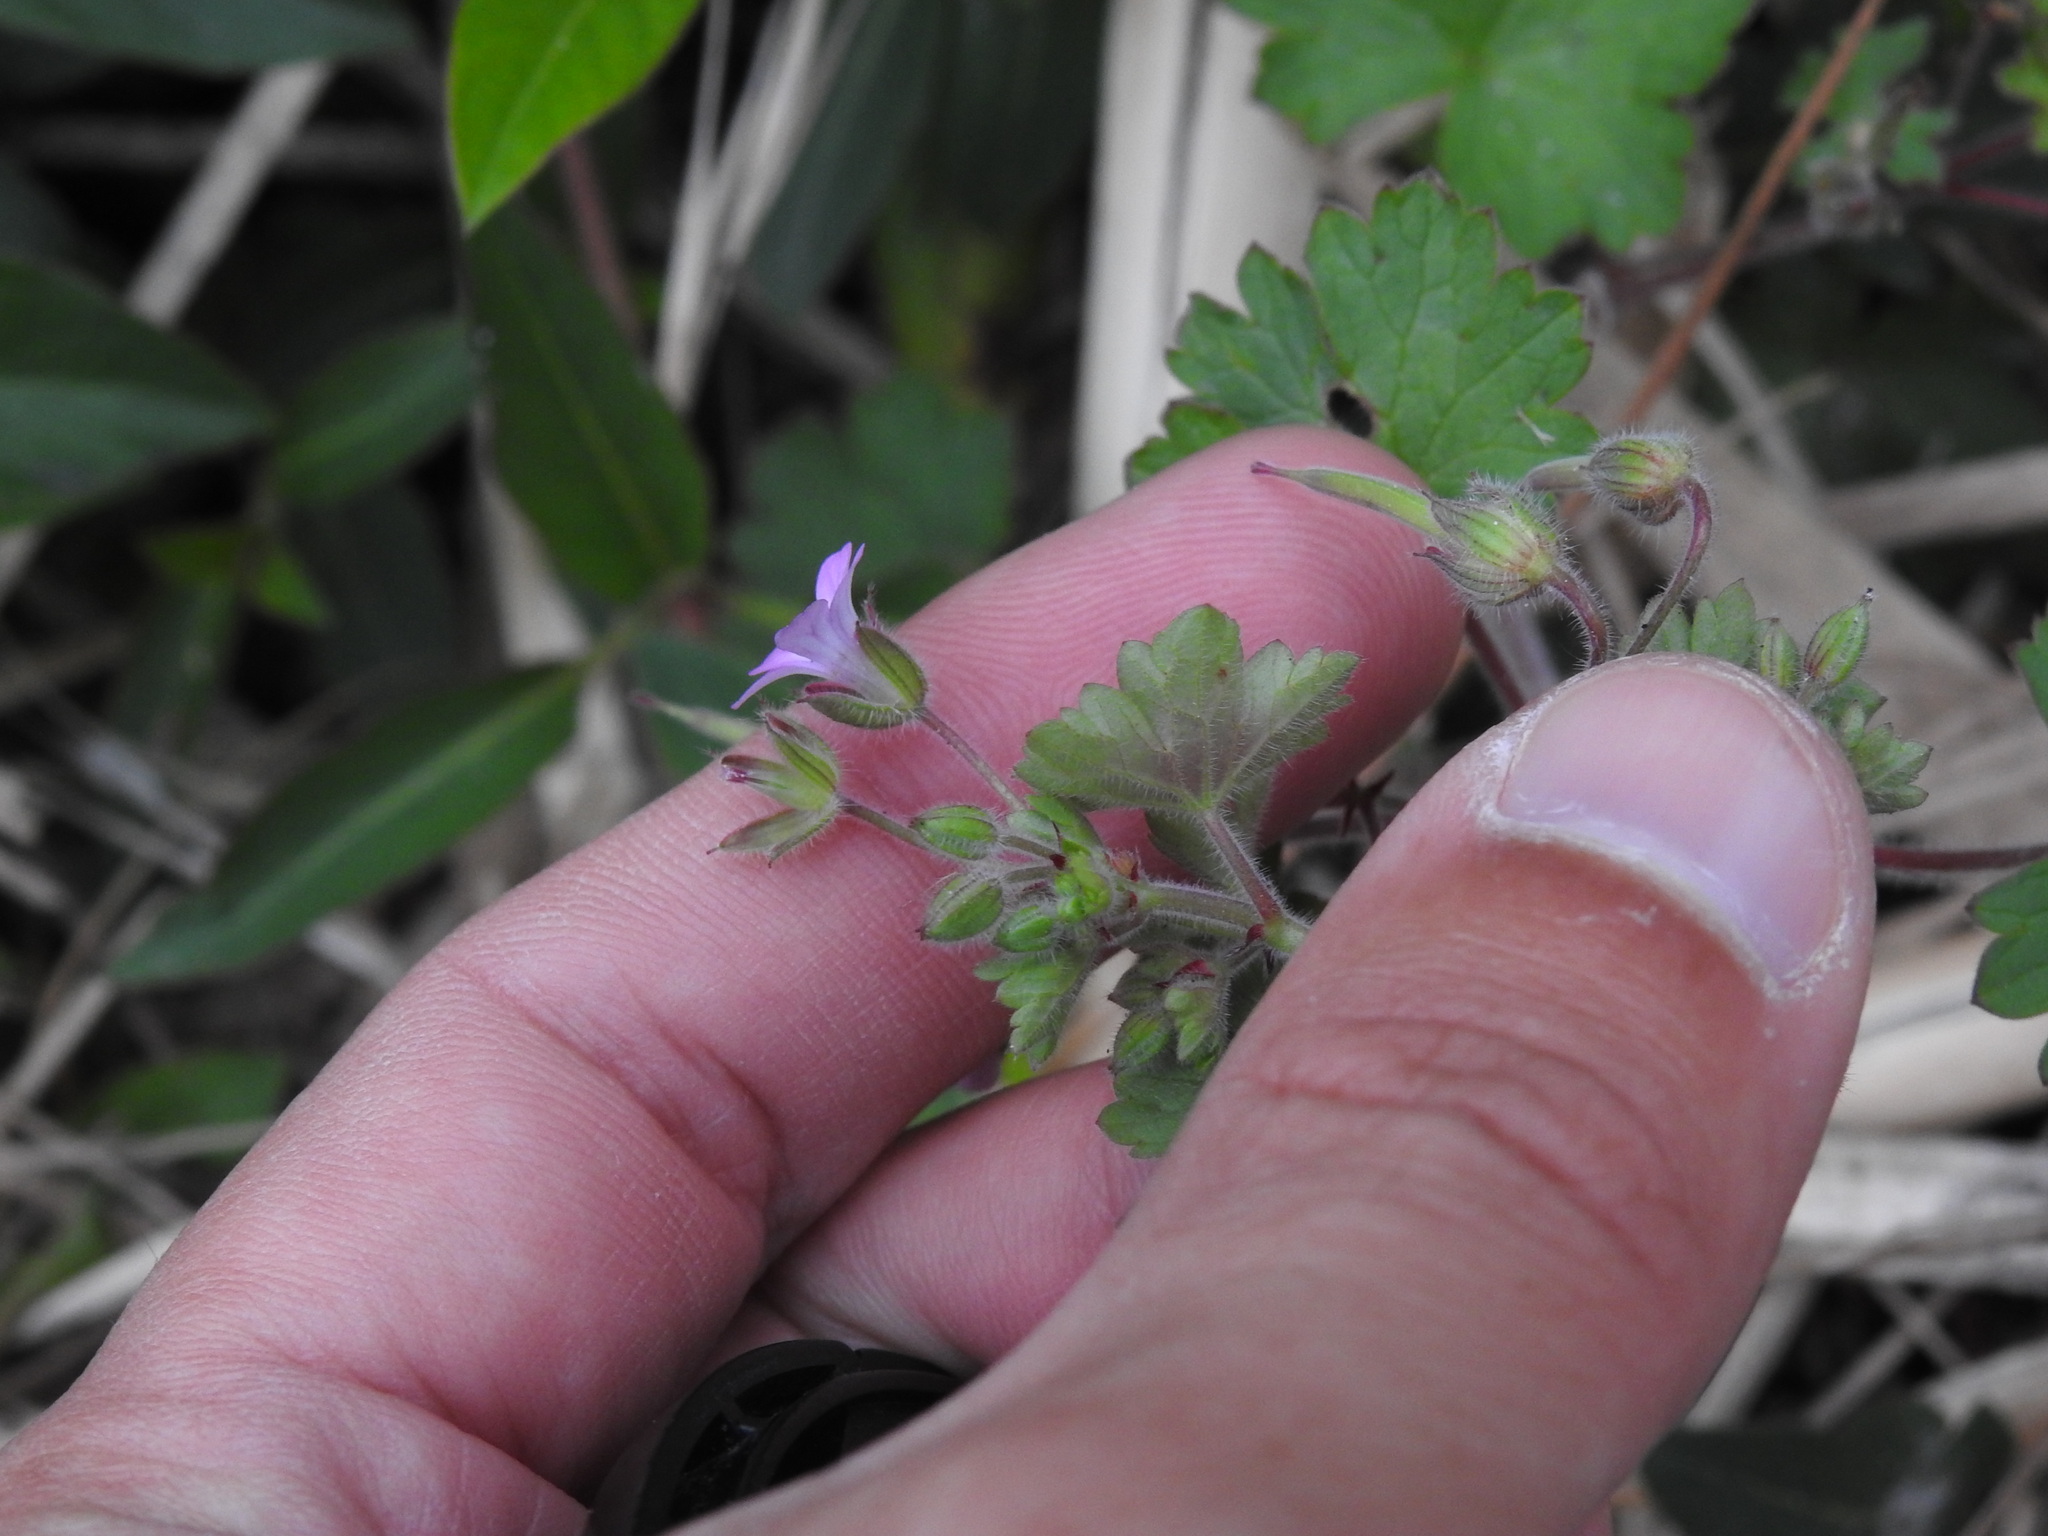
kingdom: Plantae
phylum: Tracheophyta
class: Magnoliopsida
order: Geraniales
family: Geraniaceae
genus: Geranium
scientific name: Geranium rotundifolium
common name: Round-leaved crane's-bill
